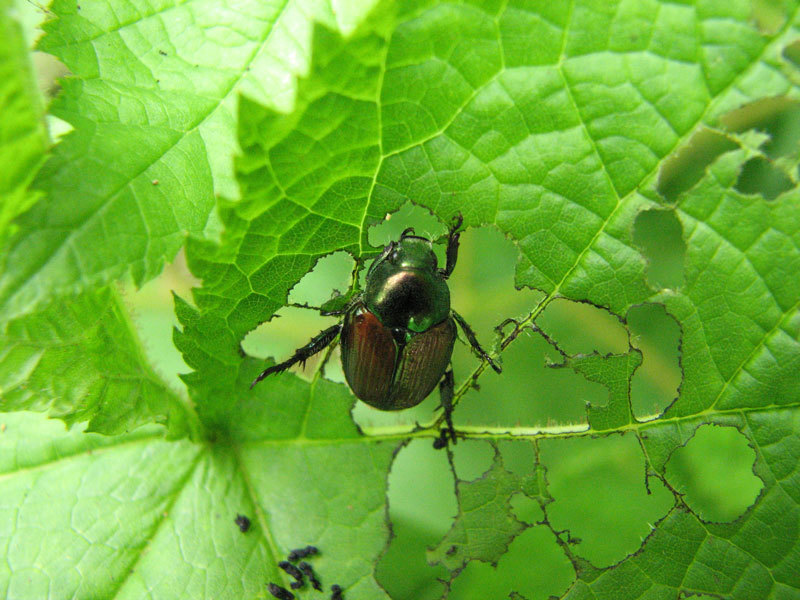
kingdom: Animalia
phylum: Arthropoda
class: Insecta
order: Coleoptera
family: Scarabaeidae
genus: Popillia
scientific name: Popillia japonica
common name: Japanese beetle
